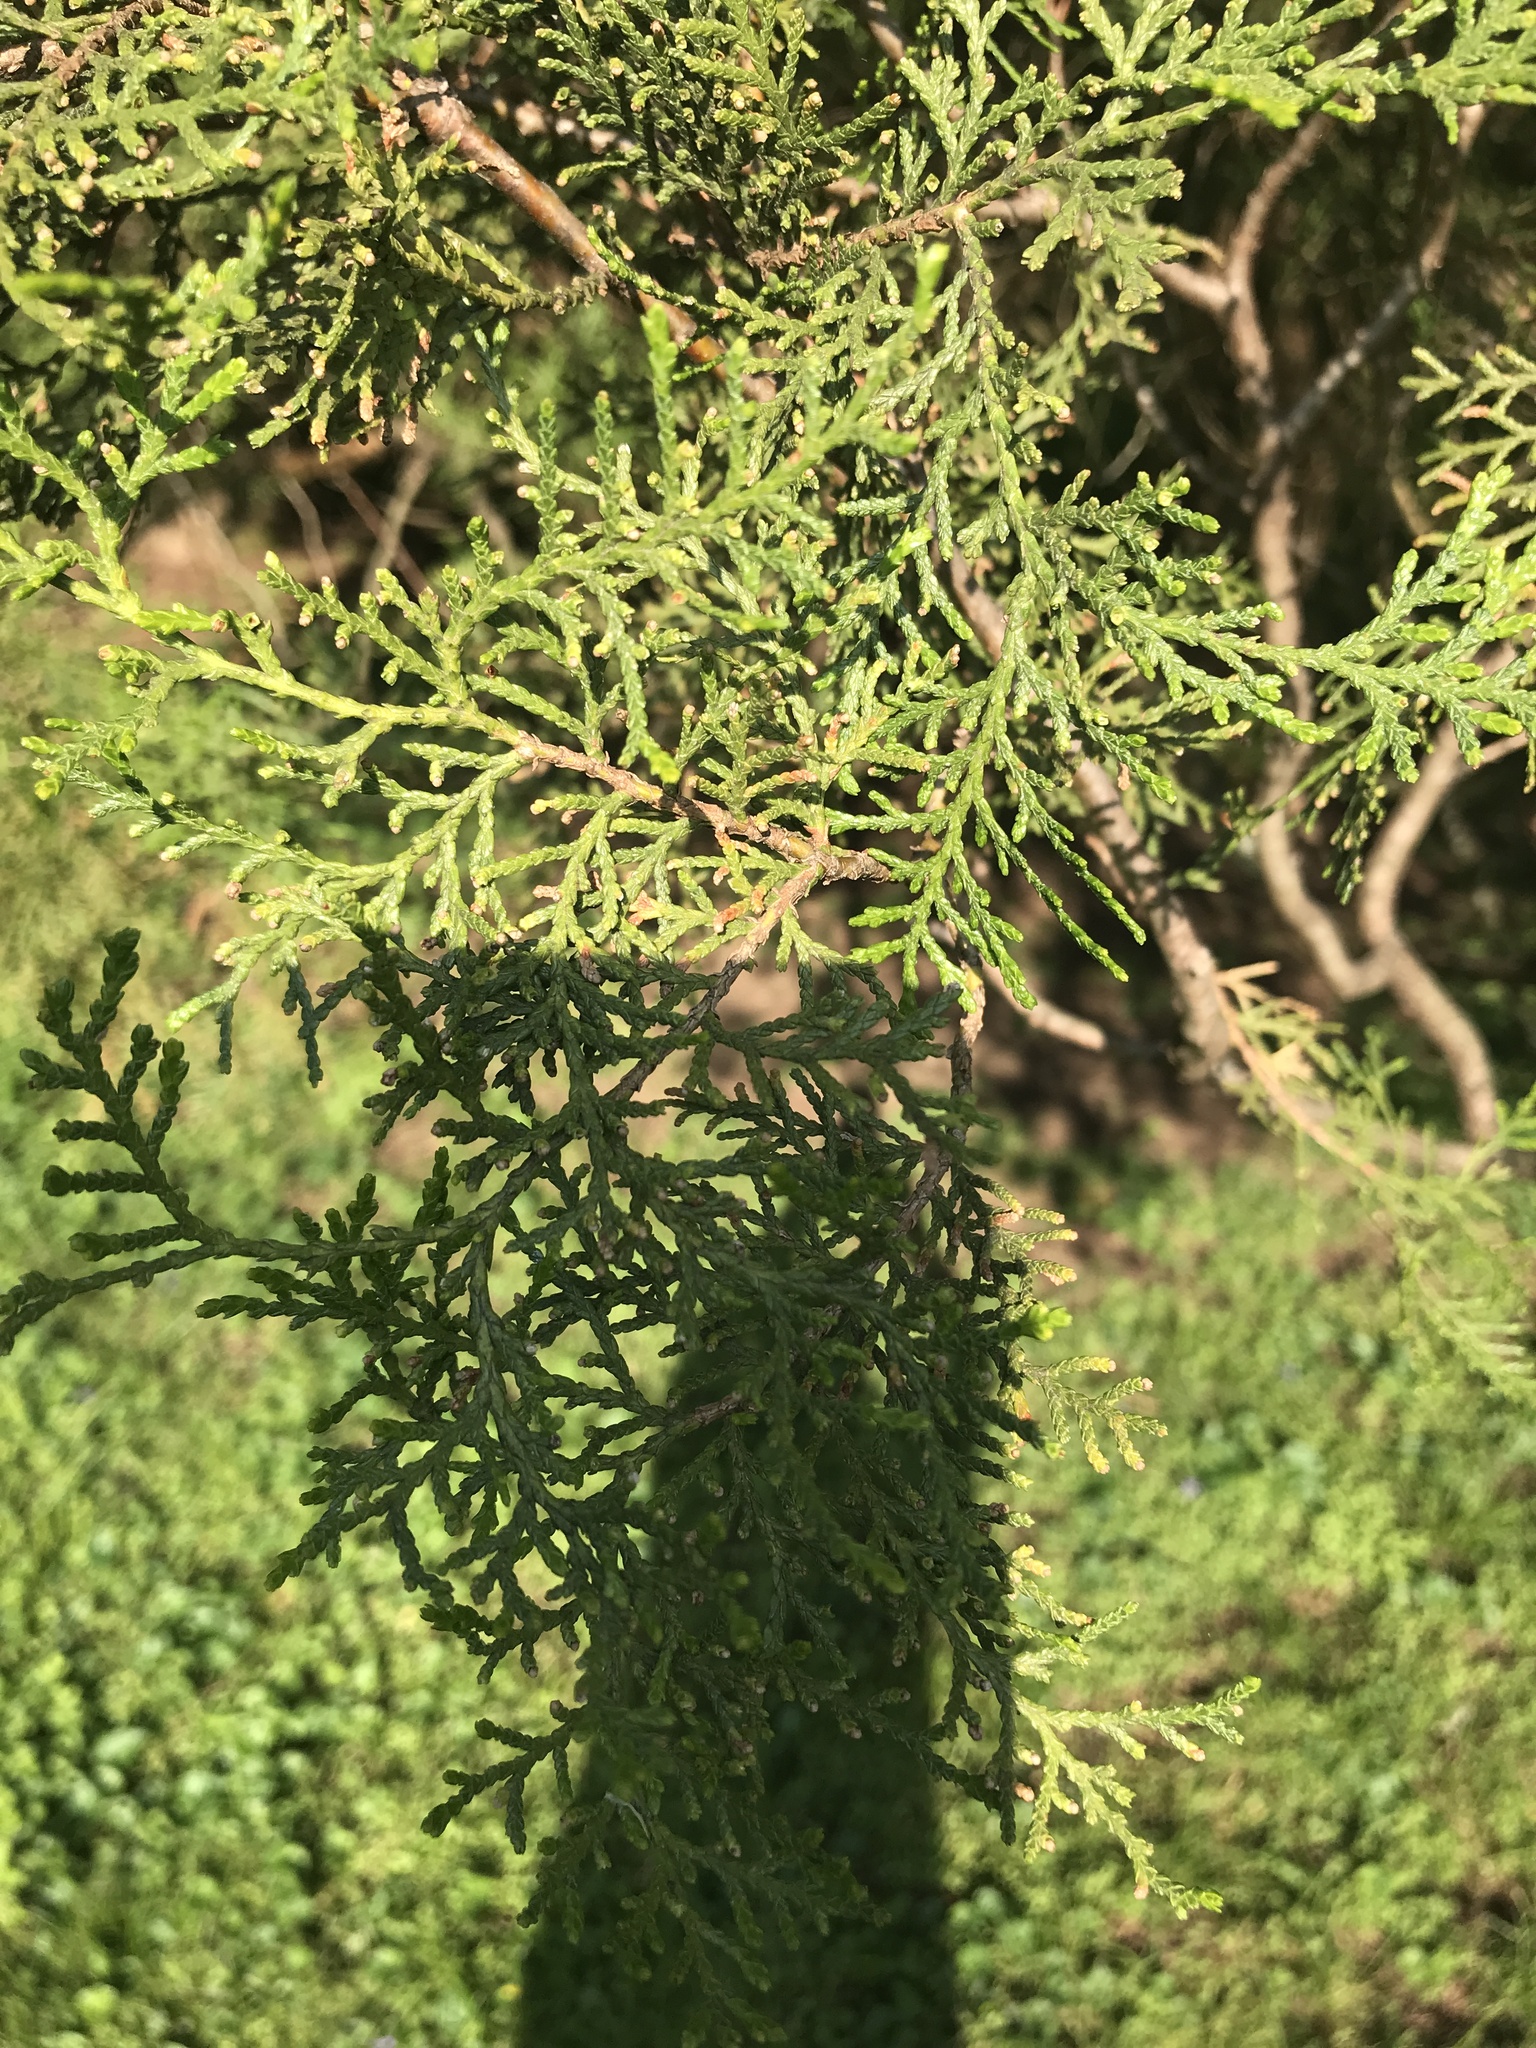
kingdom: Plantae
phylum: Tracheophyta
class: Pinopsida
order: Pinales
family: Cupressaceae
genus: Juniperus
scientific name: Juniperus virginiana
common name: Red juniper
